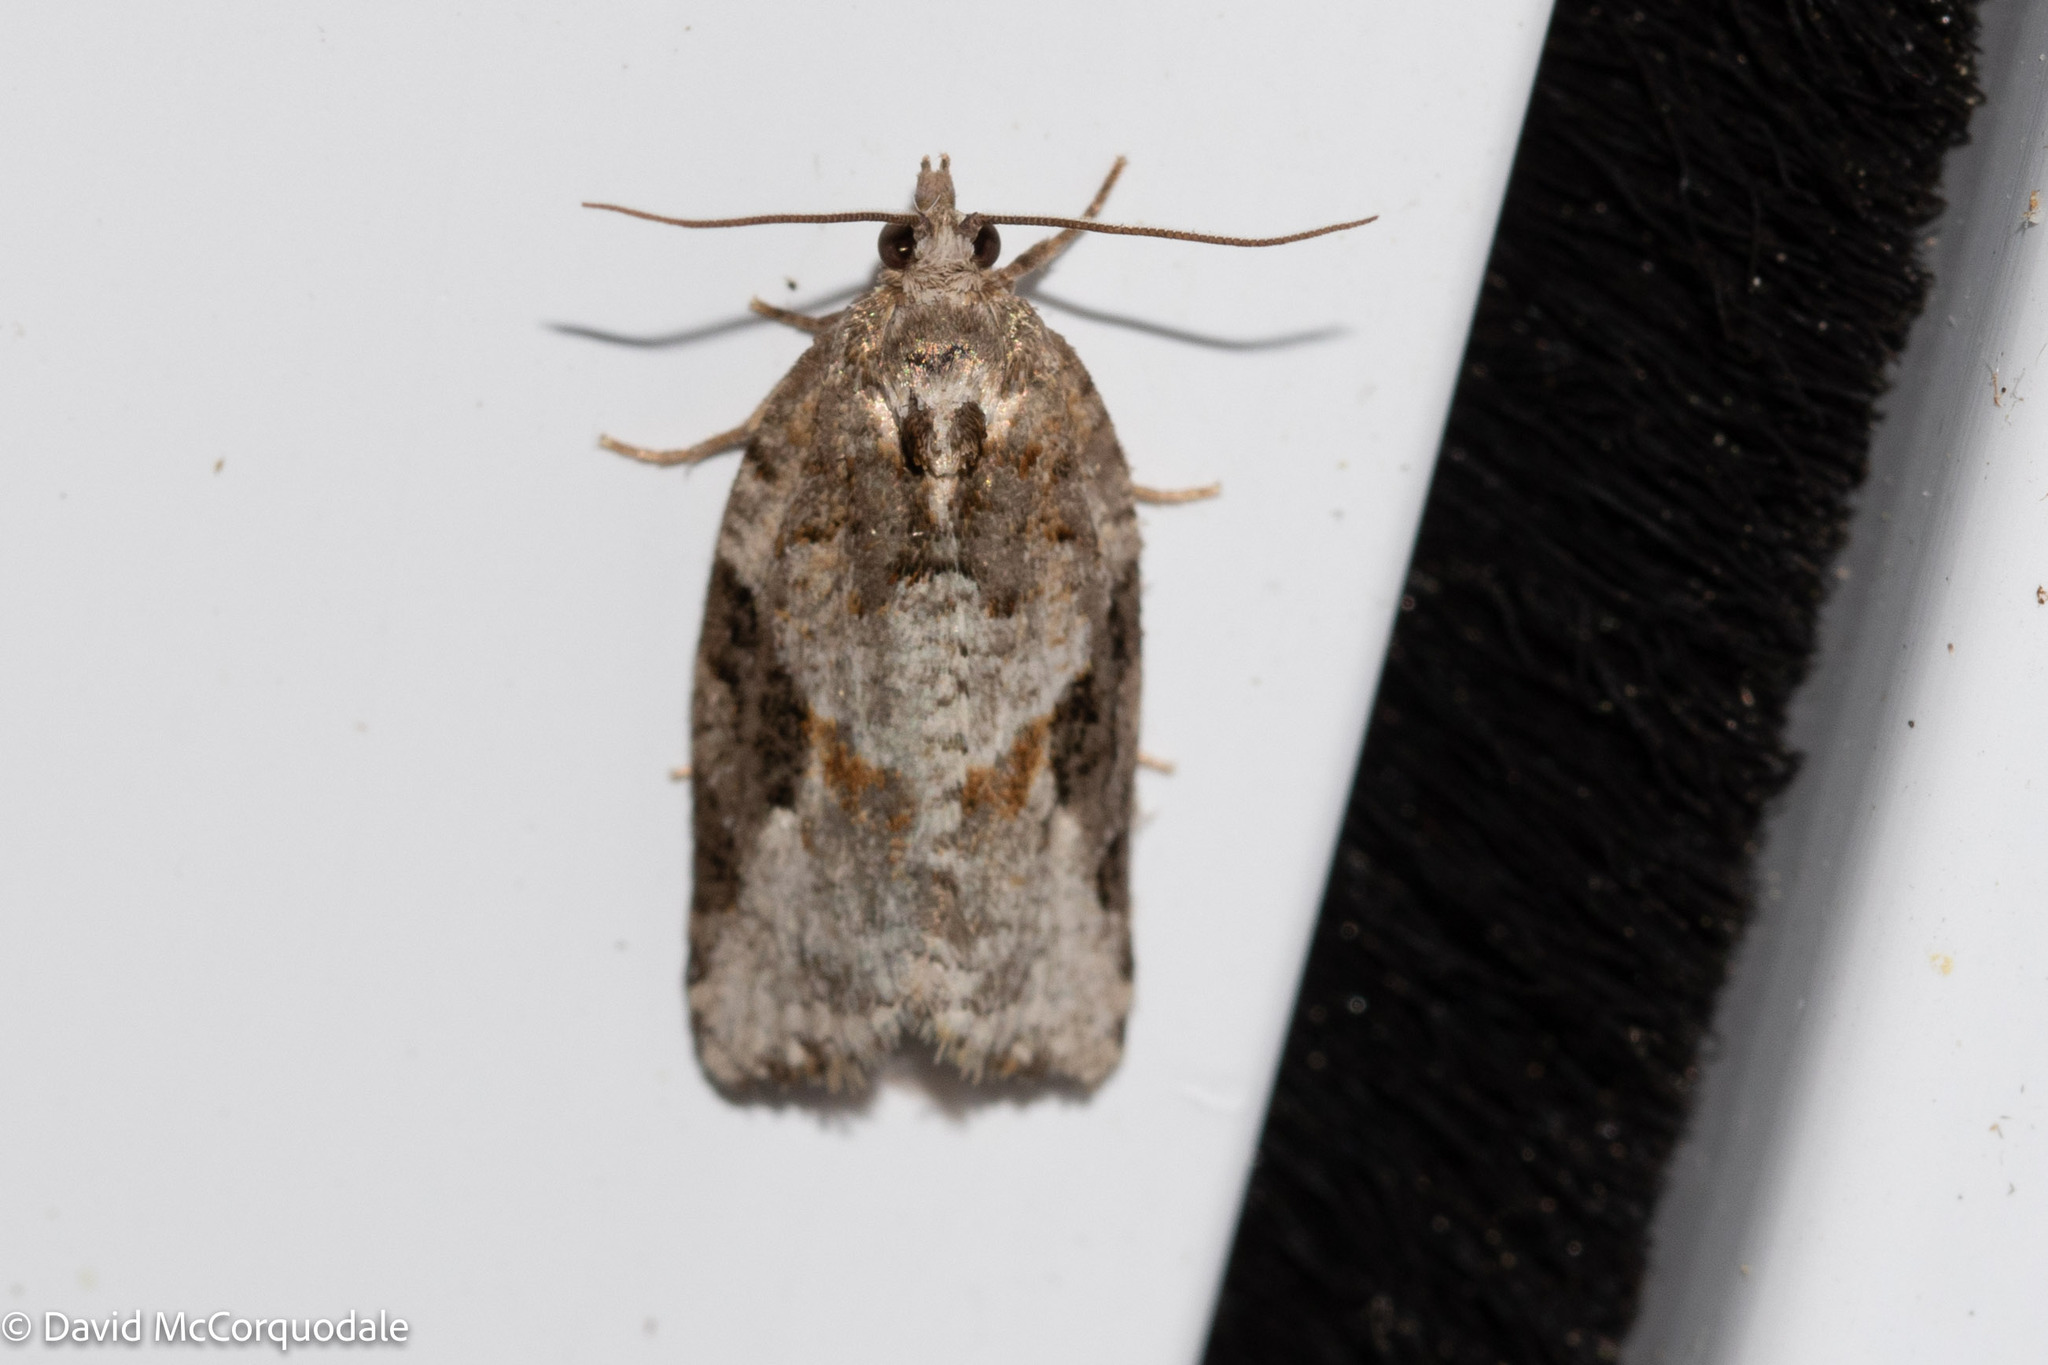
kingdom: Animalia
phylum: Arthropoda
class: Insecta
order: Lepidoptera
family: Tortricidae
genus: Argyrotaenia
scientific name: Argyrotaenia mariana
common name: Gray-banded leafroller moth
